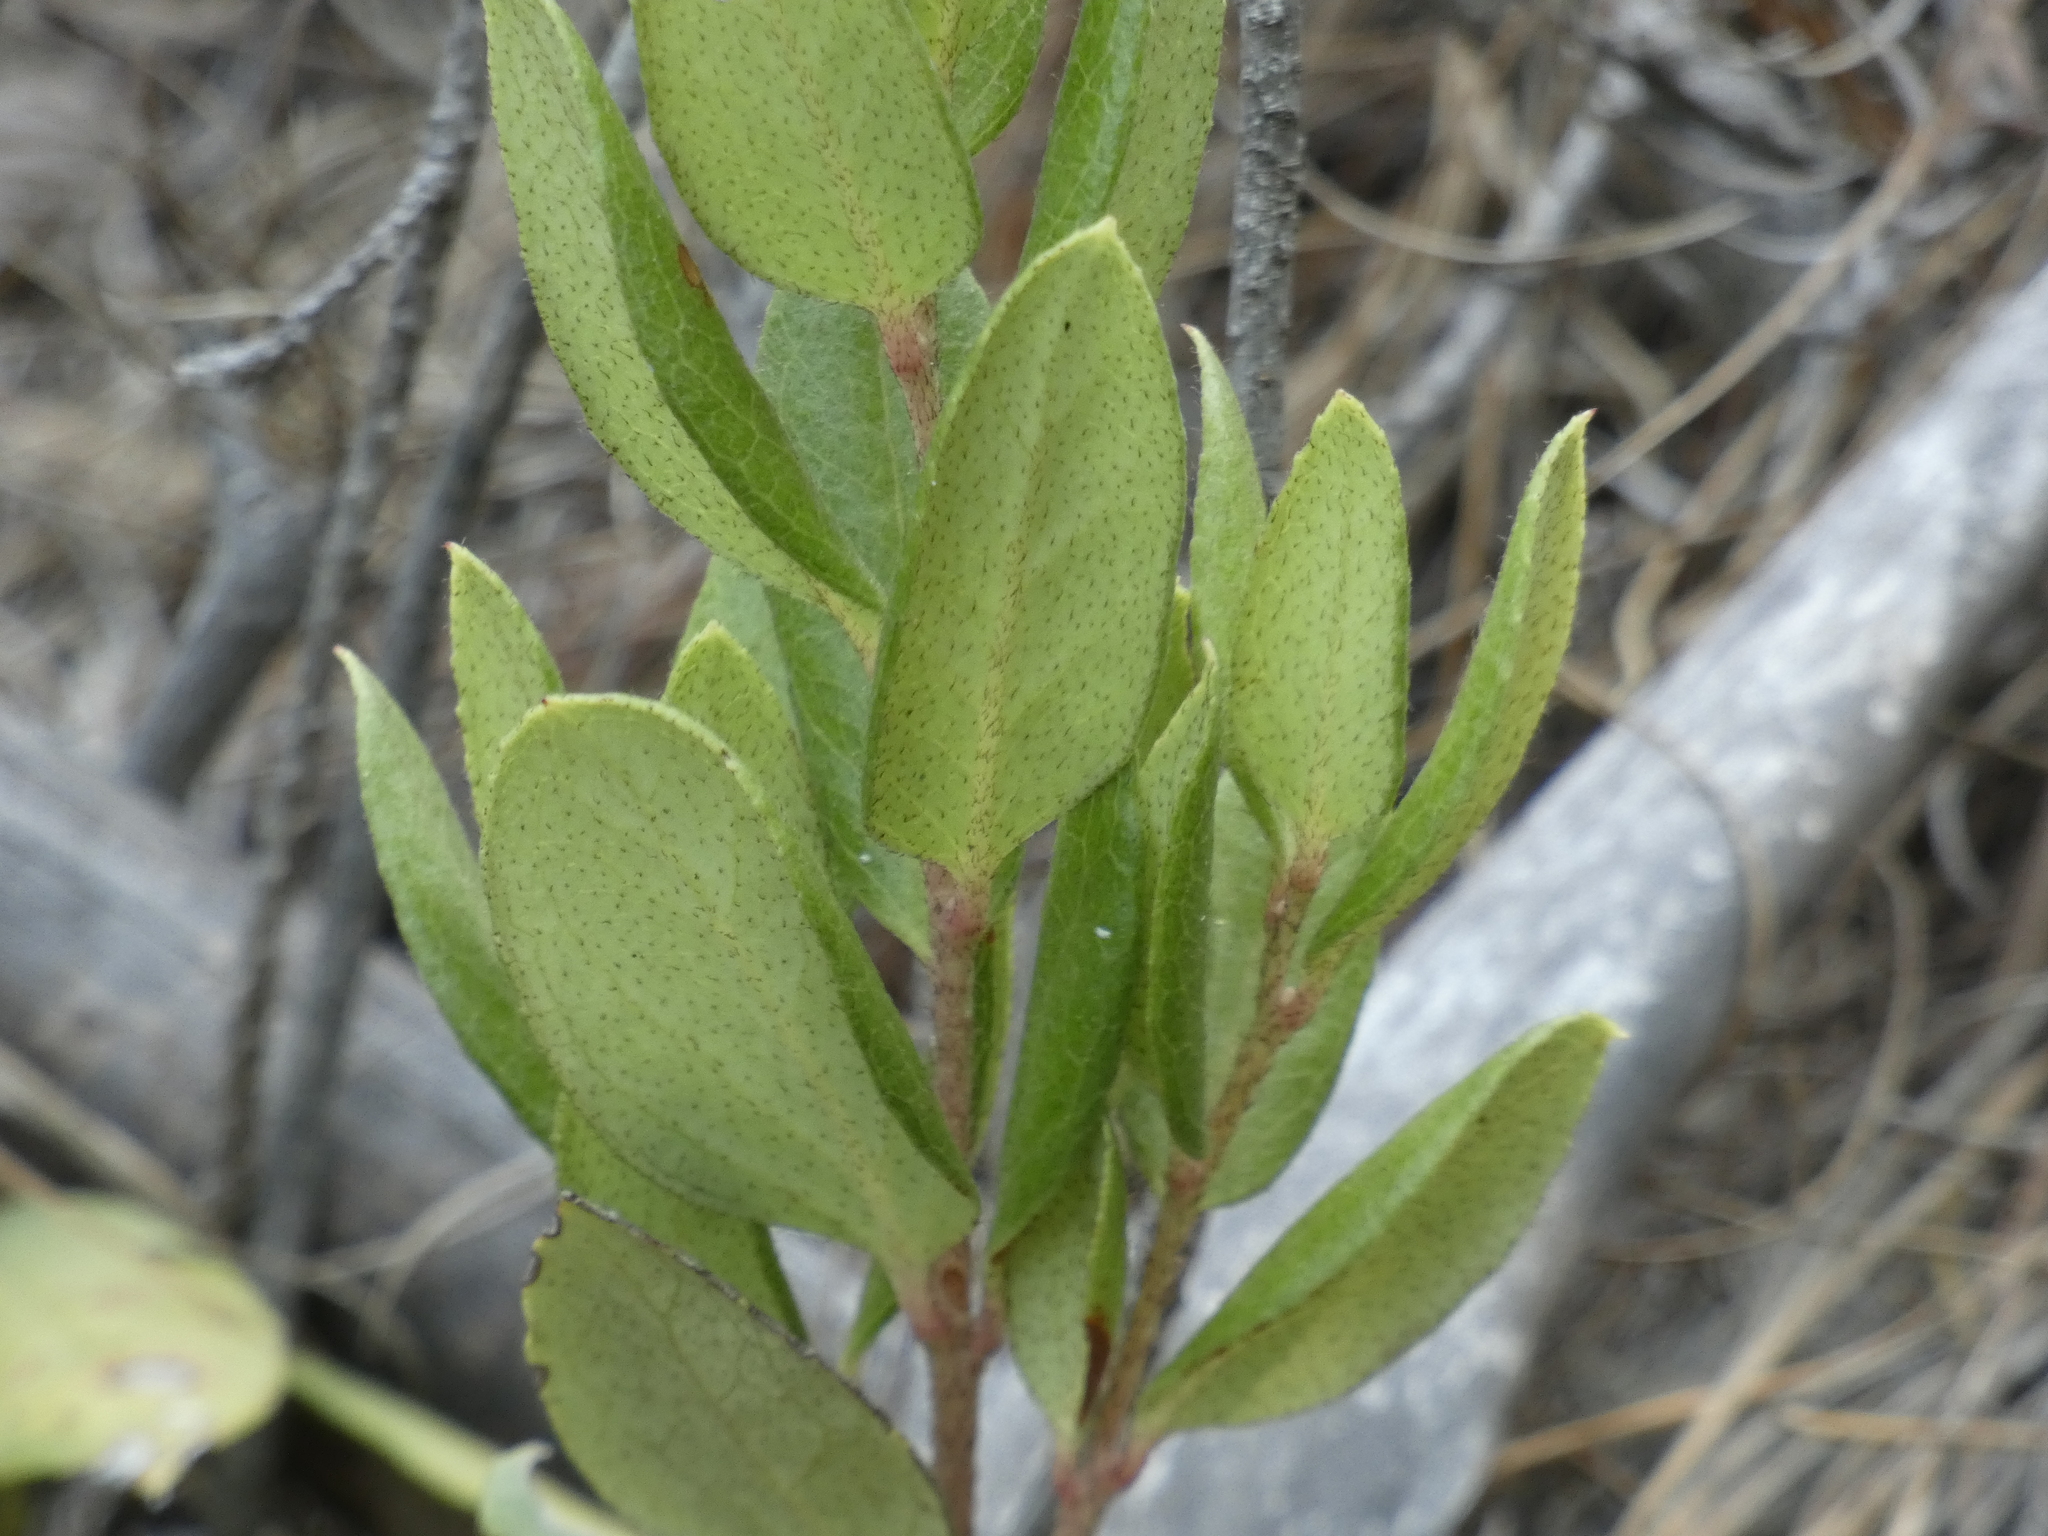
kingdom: Plantae
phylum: Tracheophyta
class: Magnoliopsida
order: Ericales
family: Ericaceae
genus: Gaultheria
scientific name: Gaultheria insana
